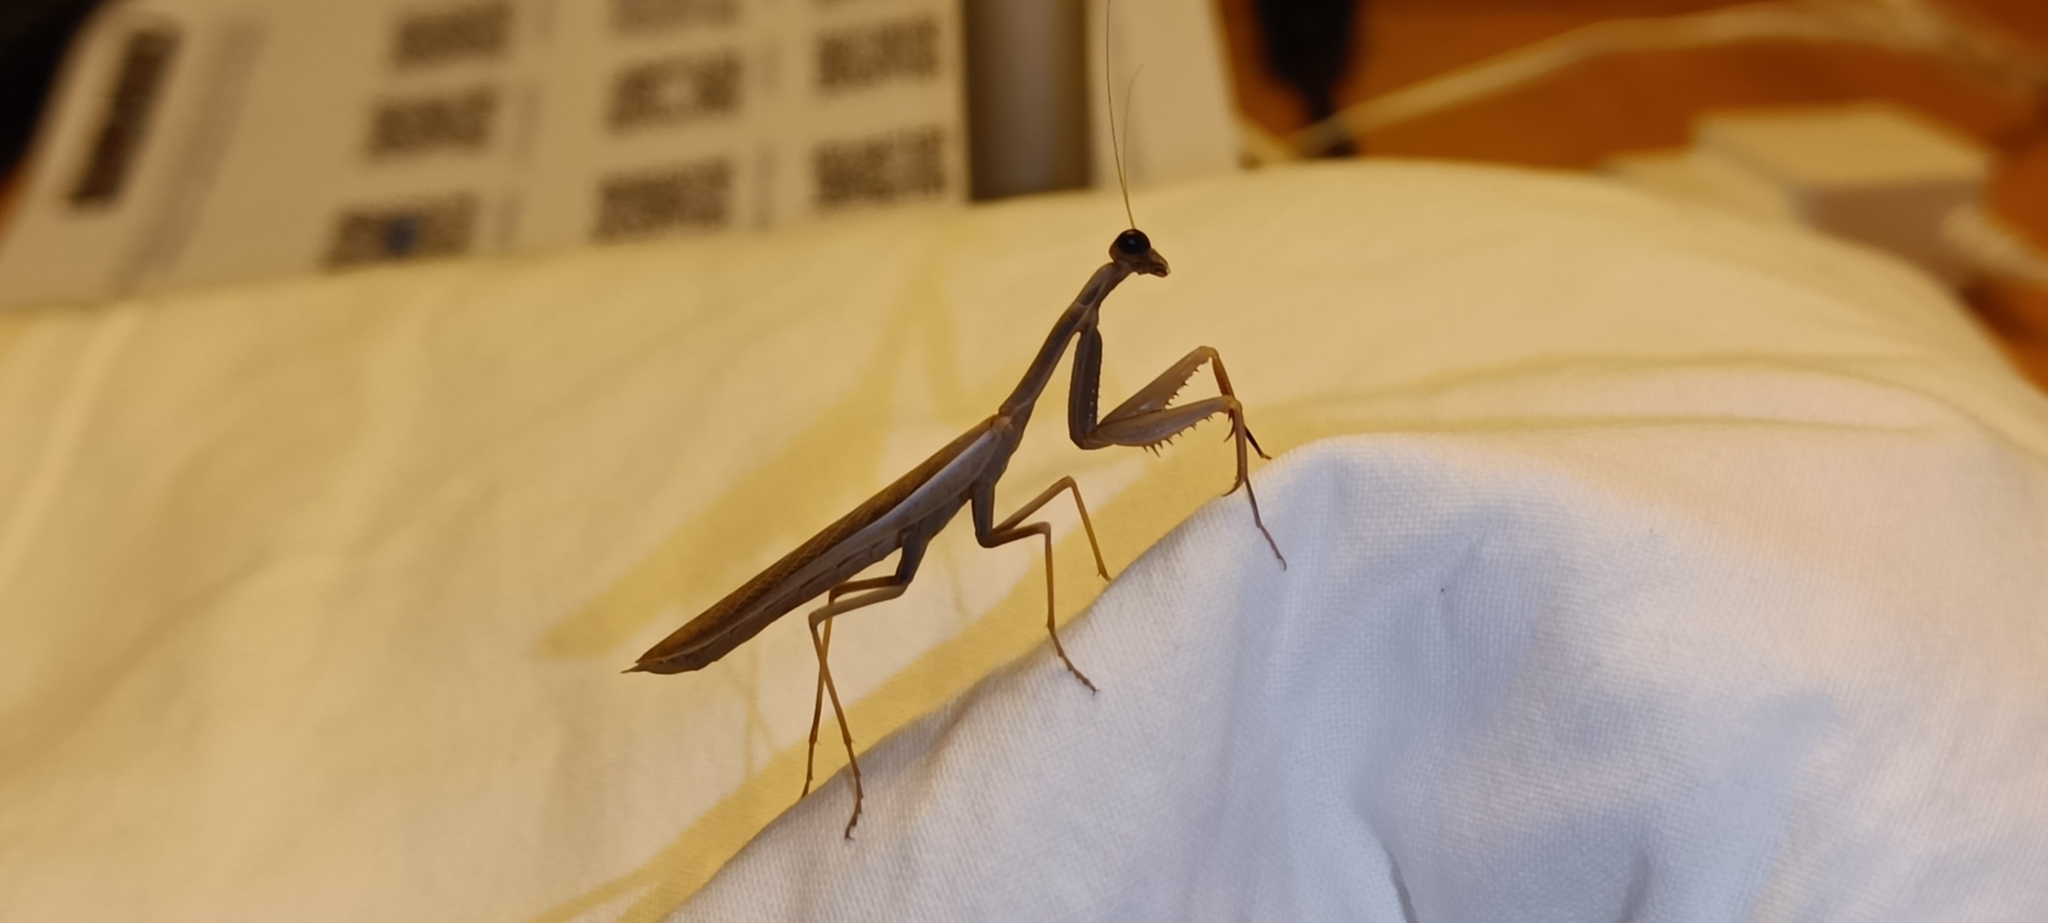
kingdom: Animalia
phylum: Arthropoda
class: Insecta
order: Mantodea
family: Eremiaphilidae
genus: Iris
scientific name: Iris oratoria
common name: Mediterranean mantis
